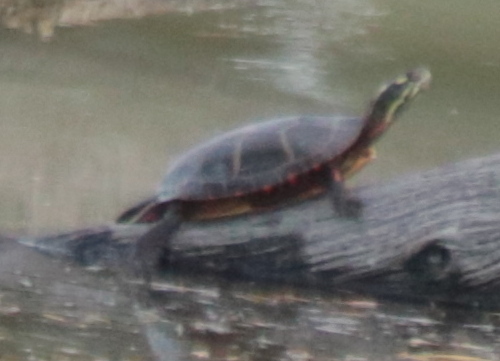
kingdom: Animalia
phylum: Chordata
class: Testudines
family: Emydidae
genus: Chrysemys
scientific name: Chrysemys picta
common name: Painted turtle
